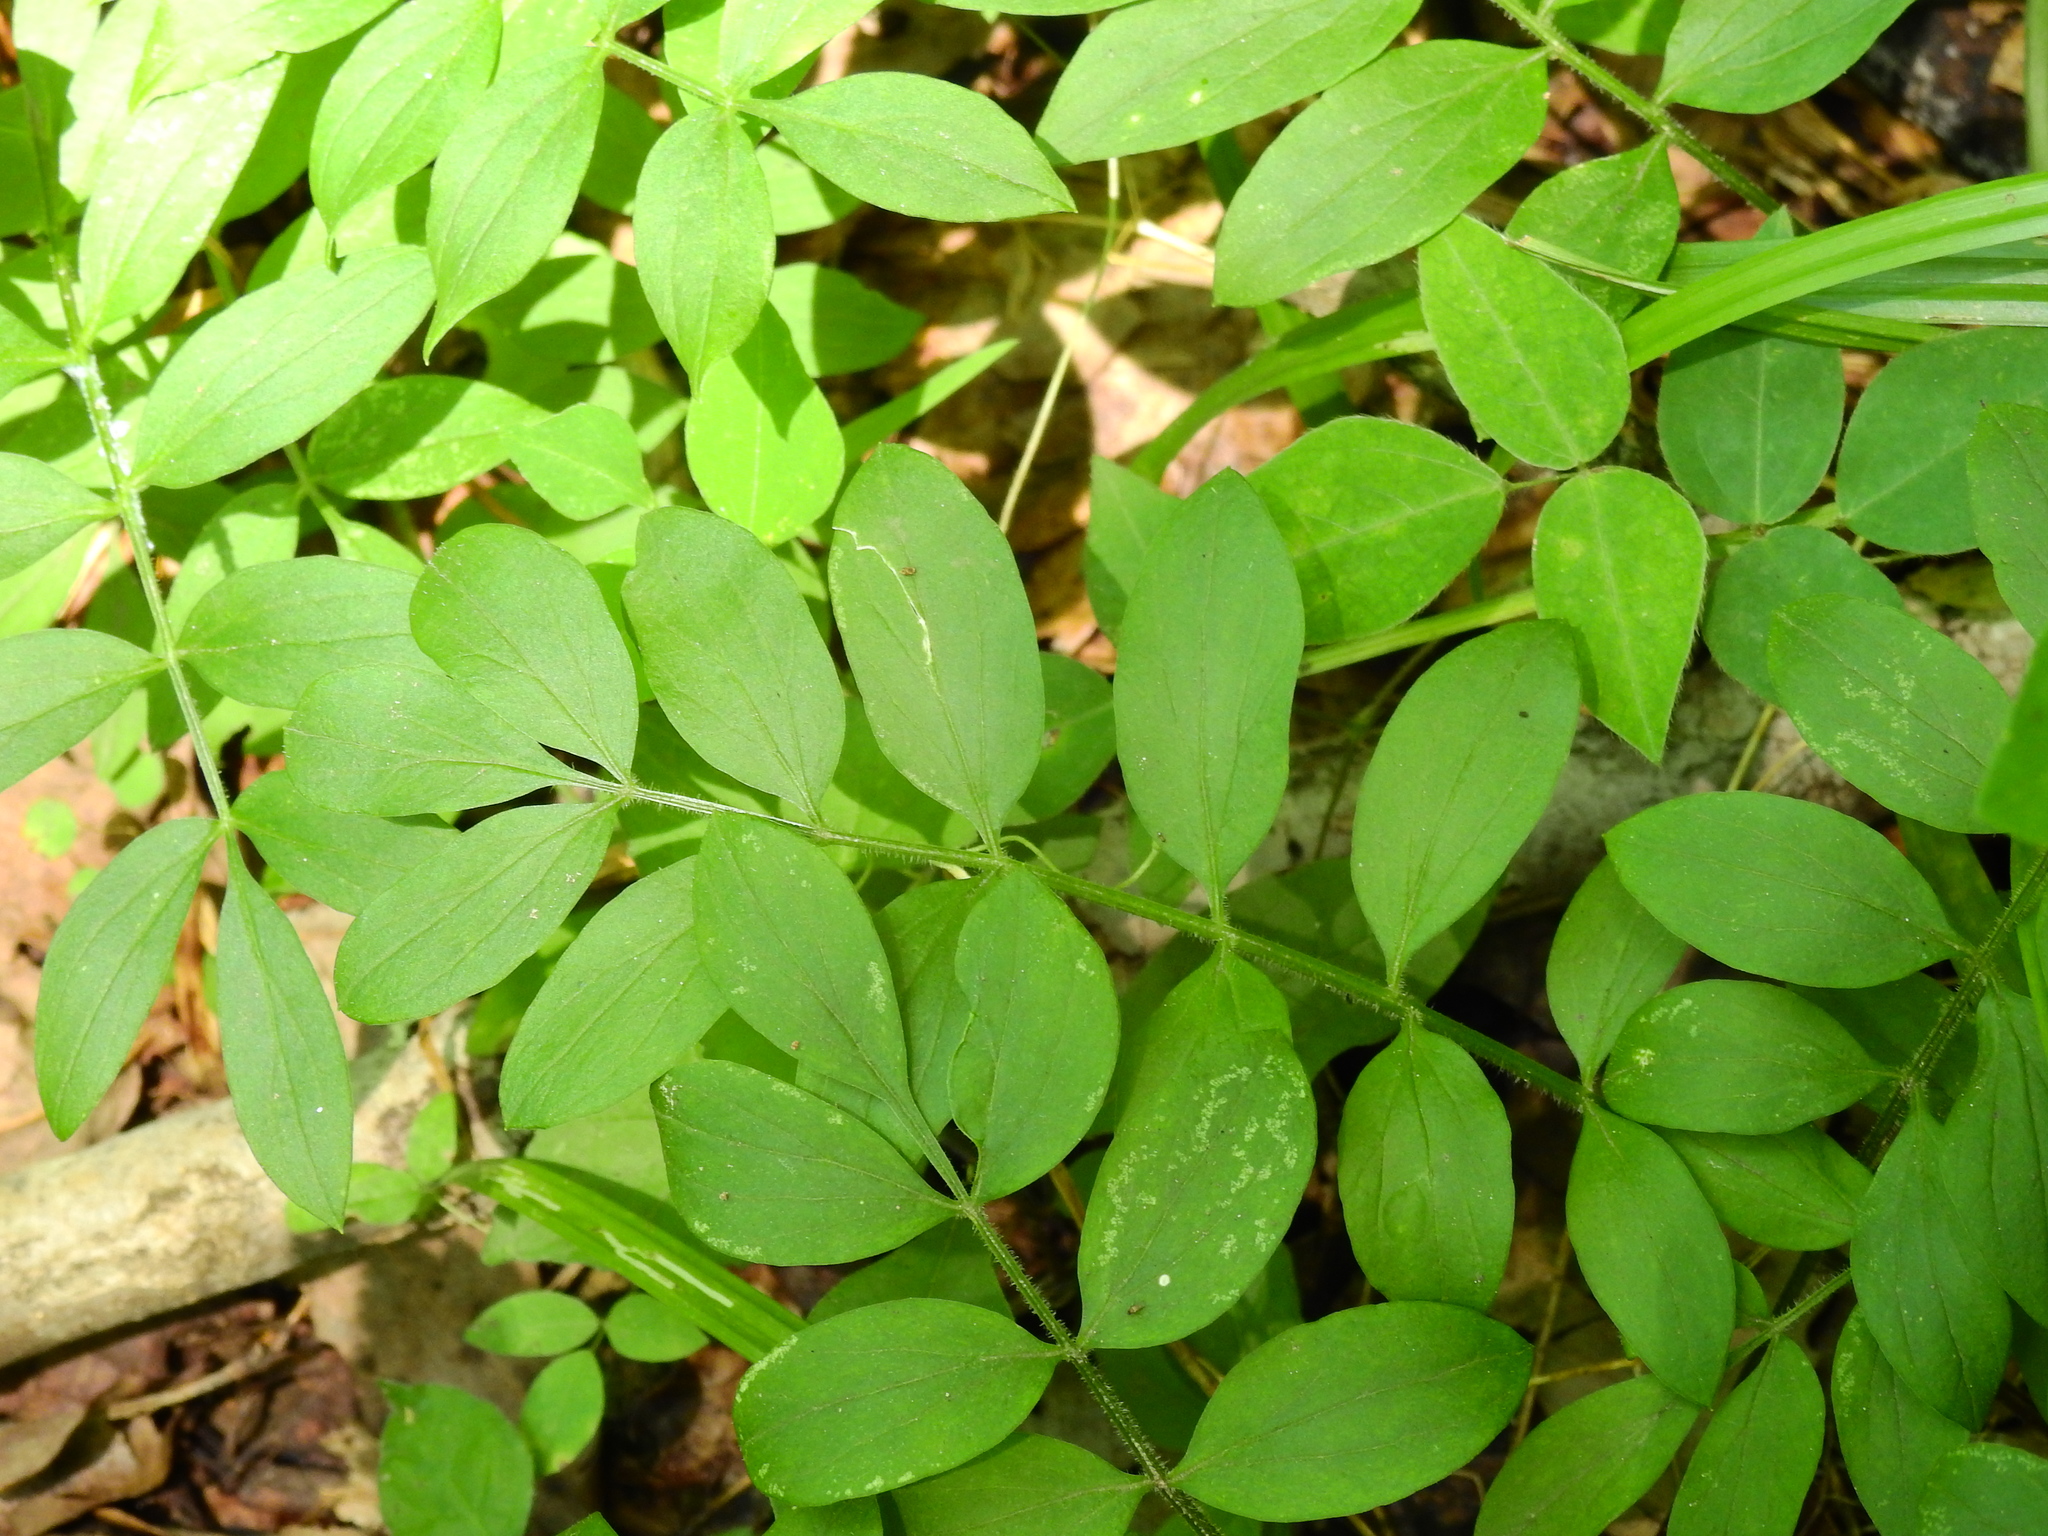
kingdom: Plantae
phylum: Tracheophyta
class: Magnoliopsida
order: Ericales
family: Polemoniaceae
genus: Polemonium
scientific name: Polemonium reptans
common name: Creeping jacob's-ladder
